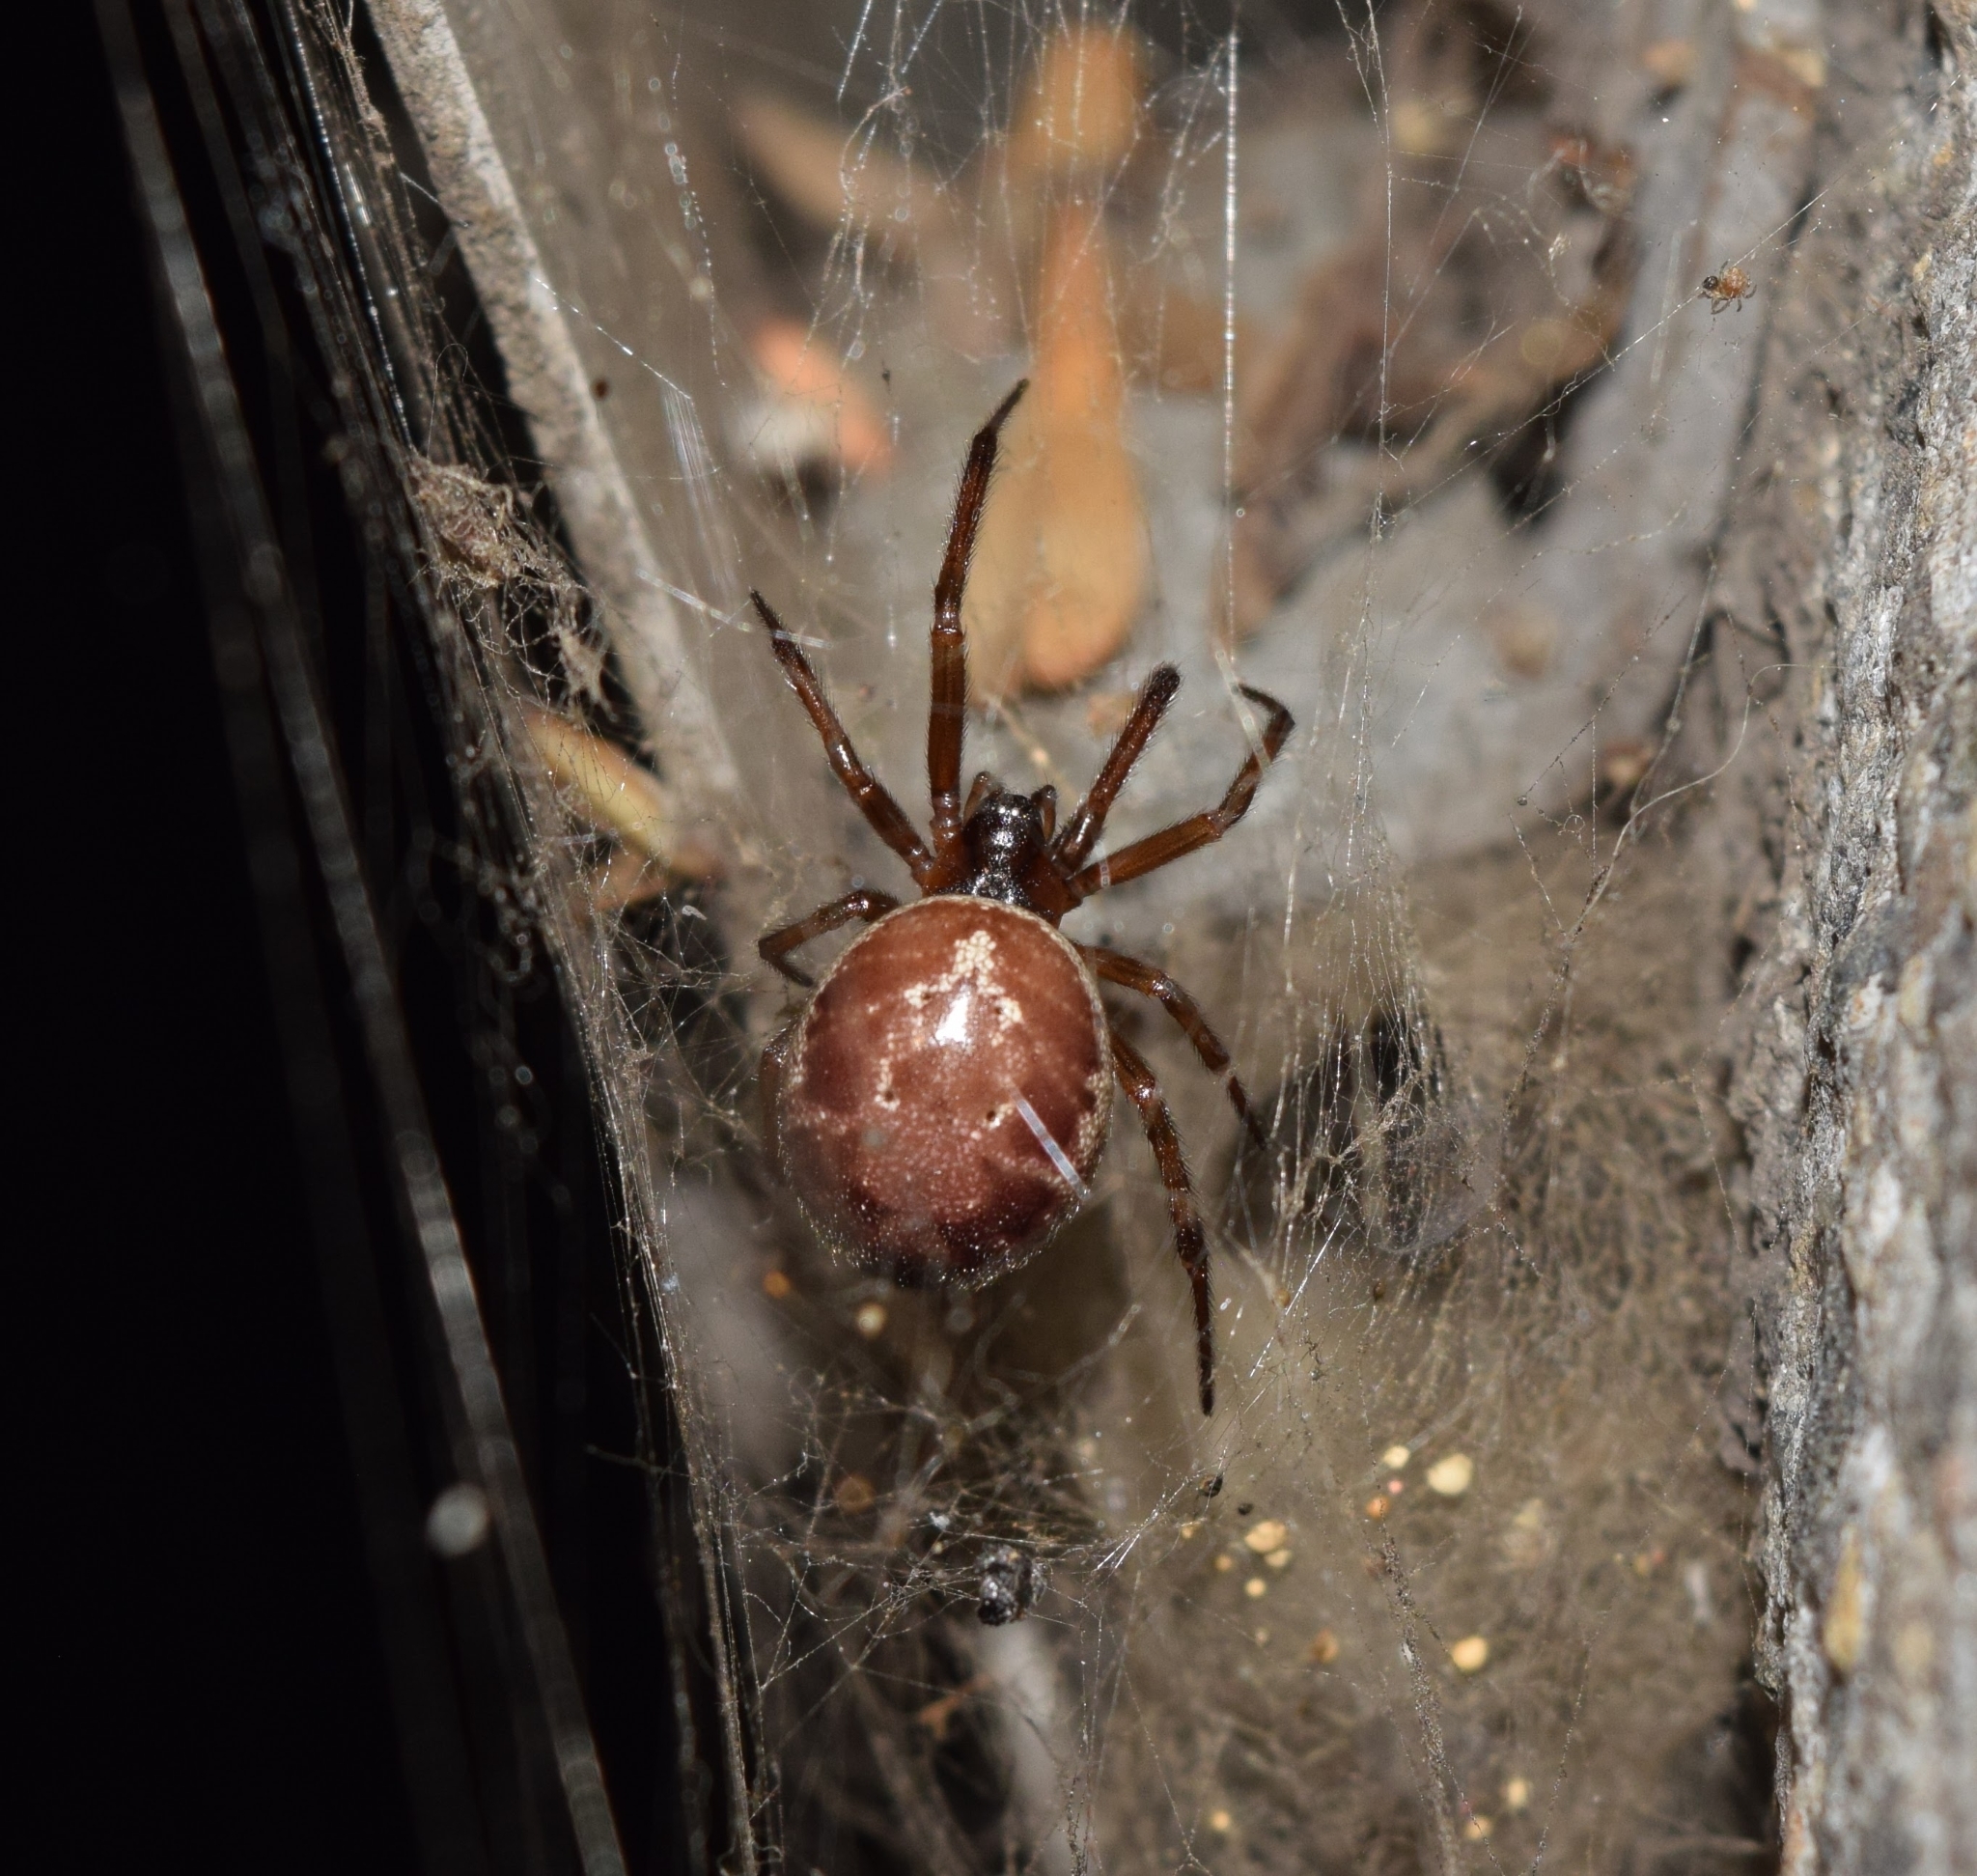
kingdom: Animalia
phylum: Arthropoda
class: Arachnida
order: Araneae
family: Theridiidae
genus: Steatoda
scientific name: Steatoda nobilis
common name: Cobweb weaver
